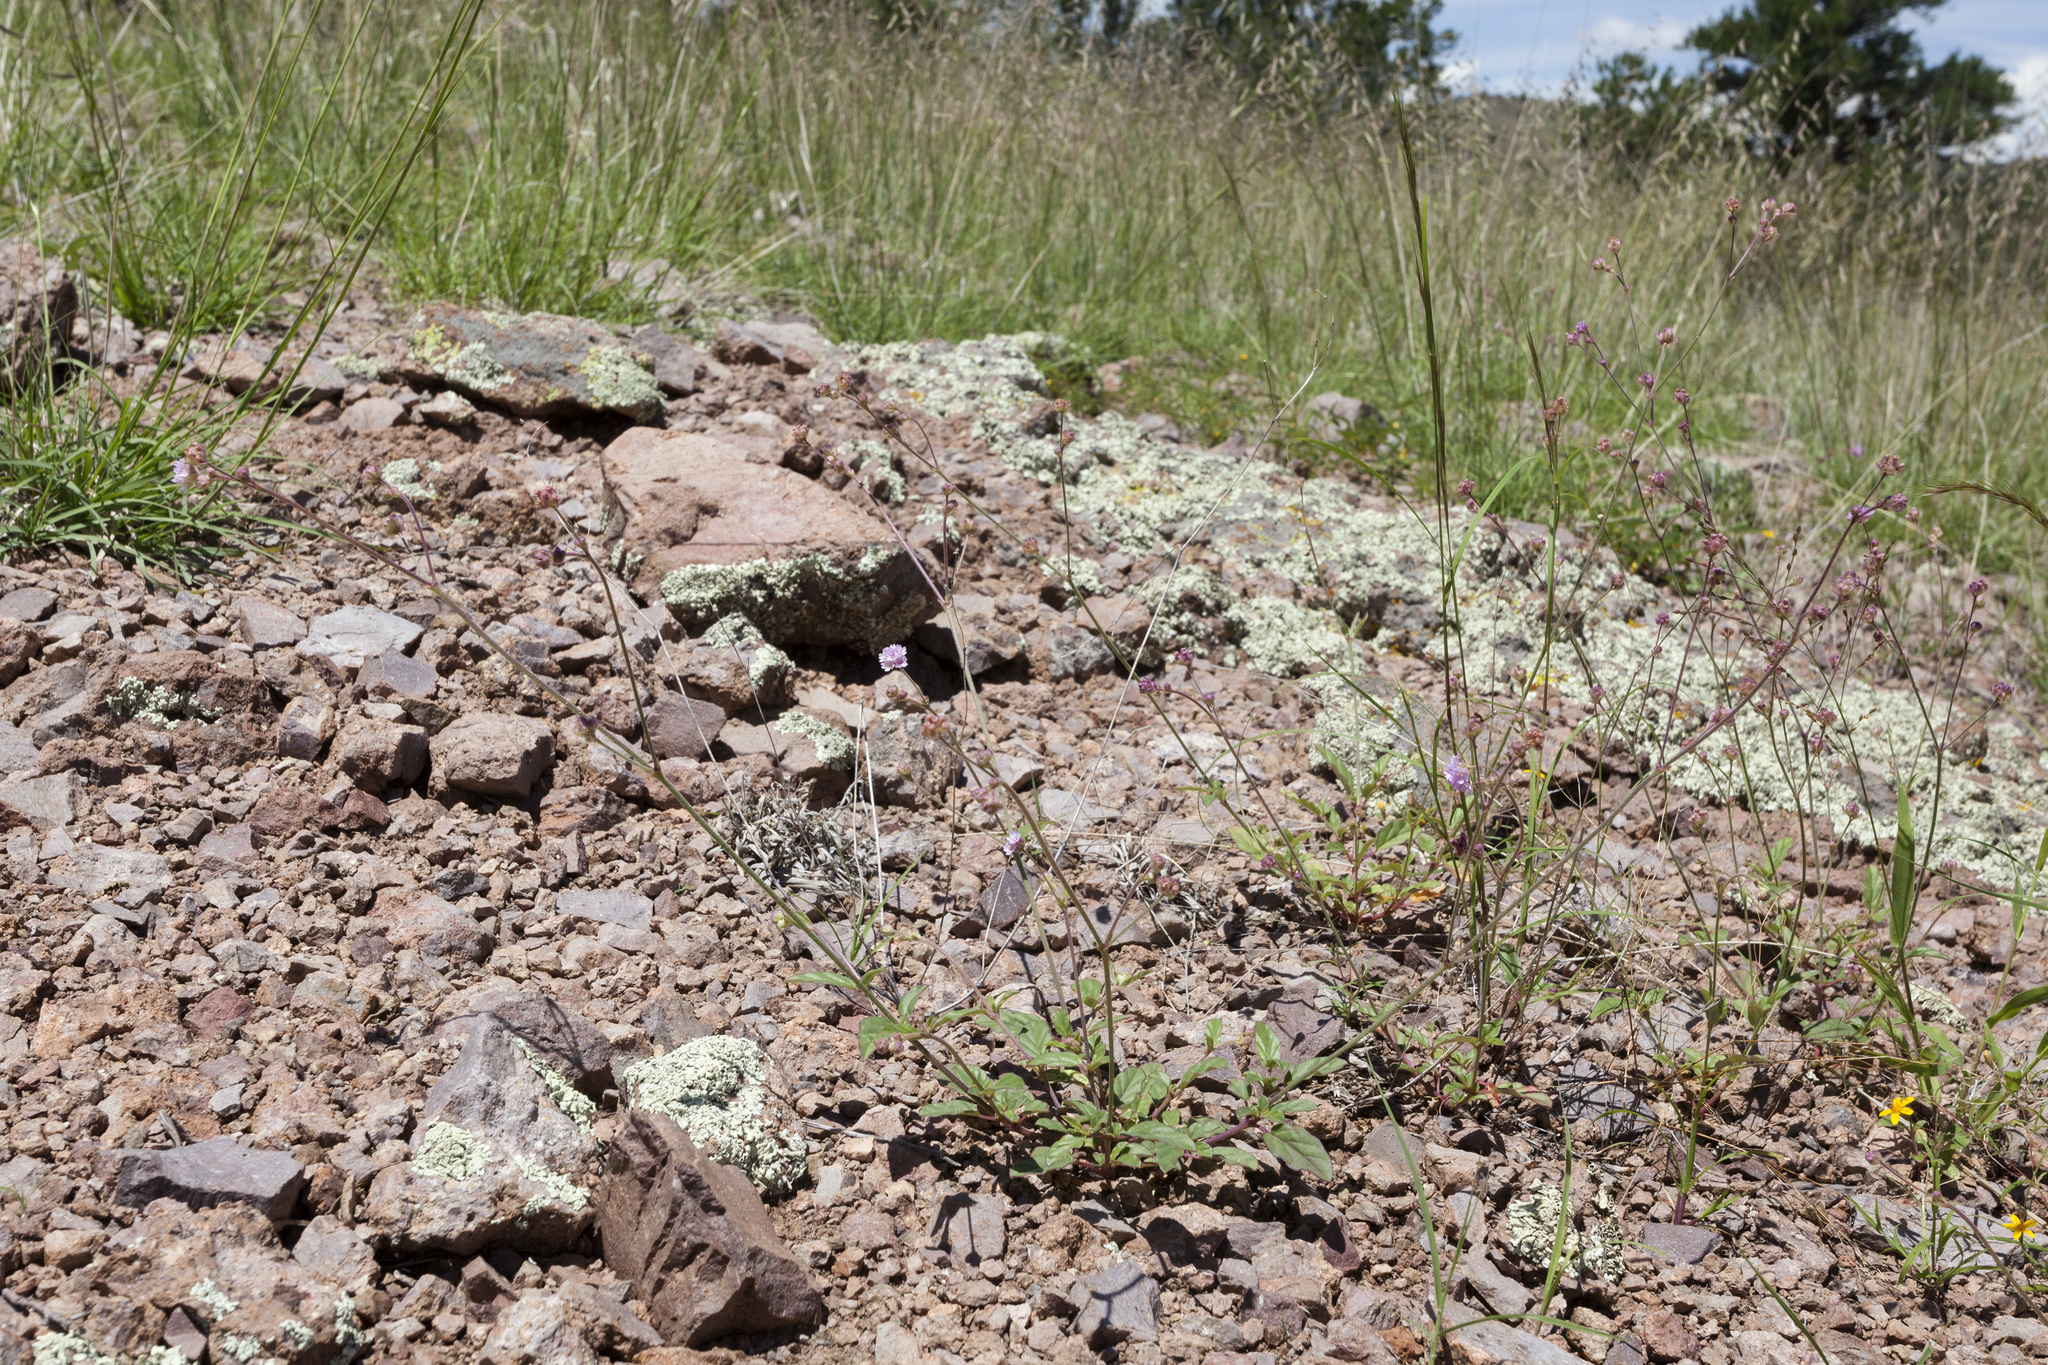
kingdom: Plantae
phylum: Tracheophyta
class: Magnoliopsida
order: Caryophyllales
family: Nyctaginaceae
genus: Boerhavia
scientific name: Boerhavia purpurascens
